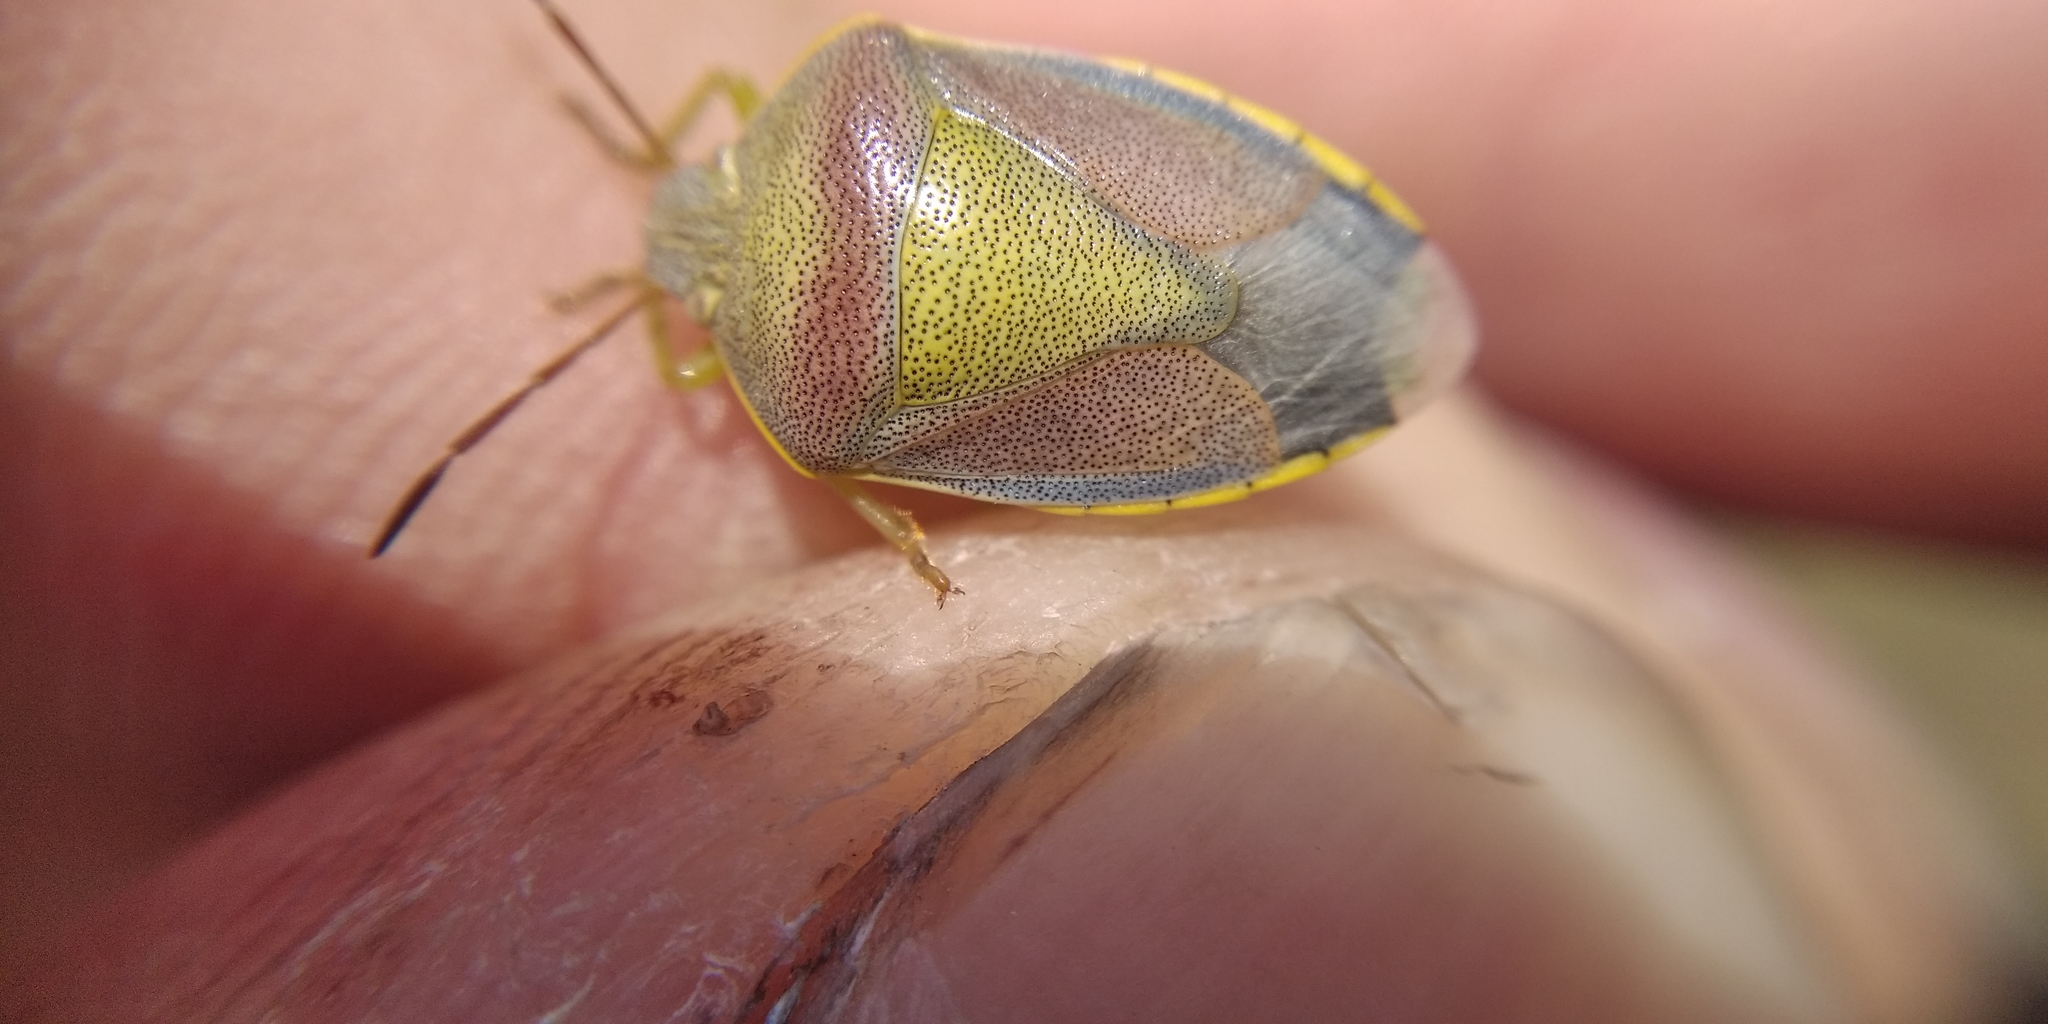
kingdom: Animalia
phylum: Arthropoda
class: Insecta
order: Hemiptera
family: Pentatomidae
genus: Piezodorus
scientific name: Piezodorus lituratus
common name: Stink bug
